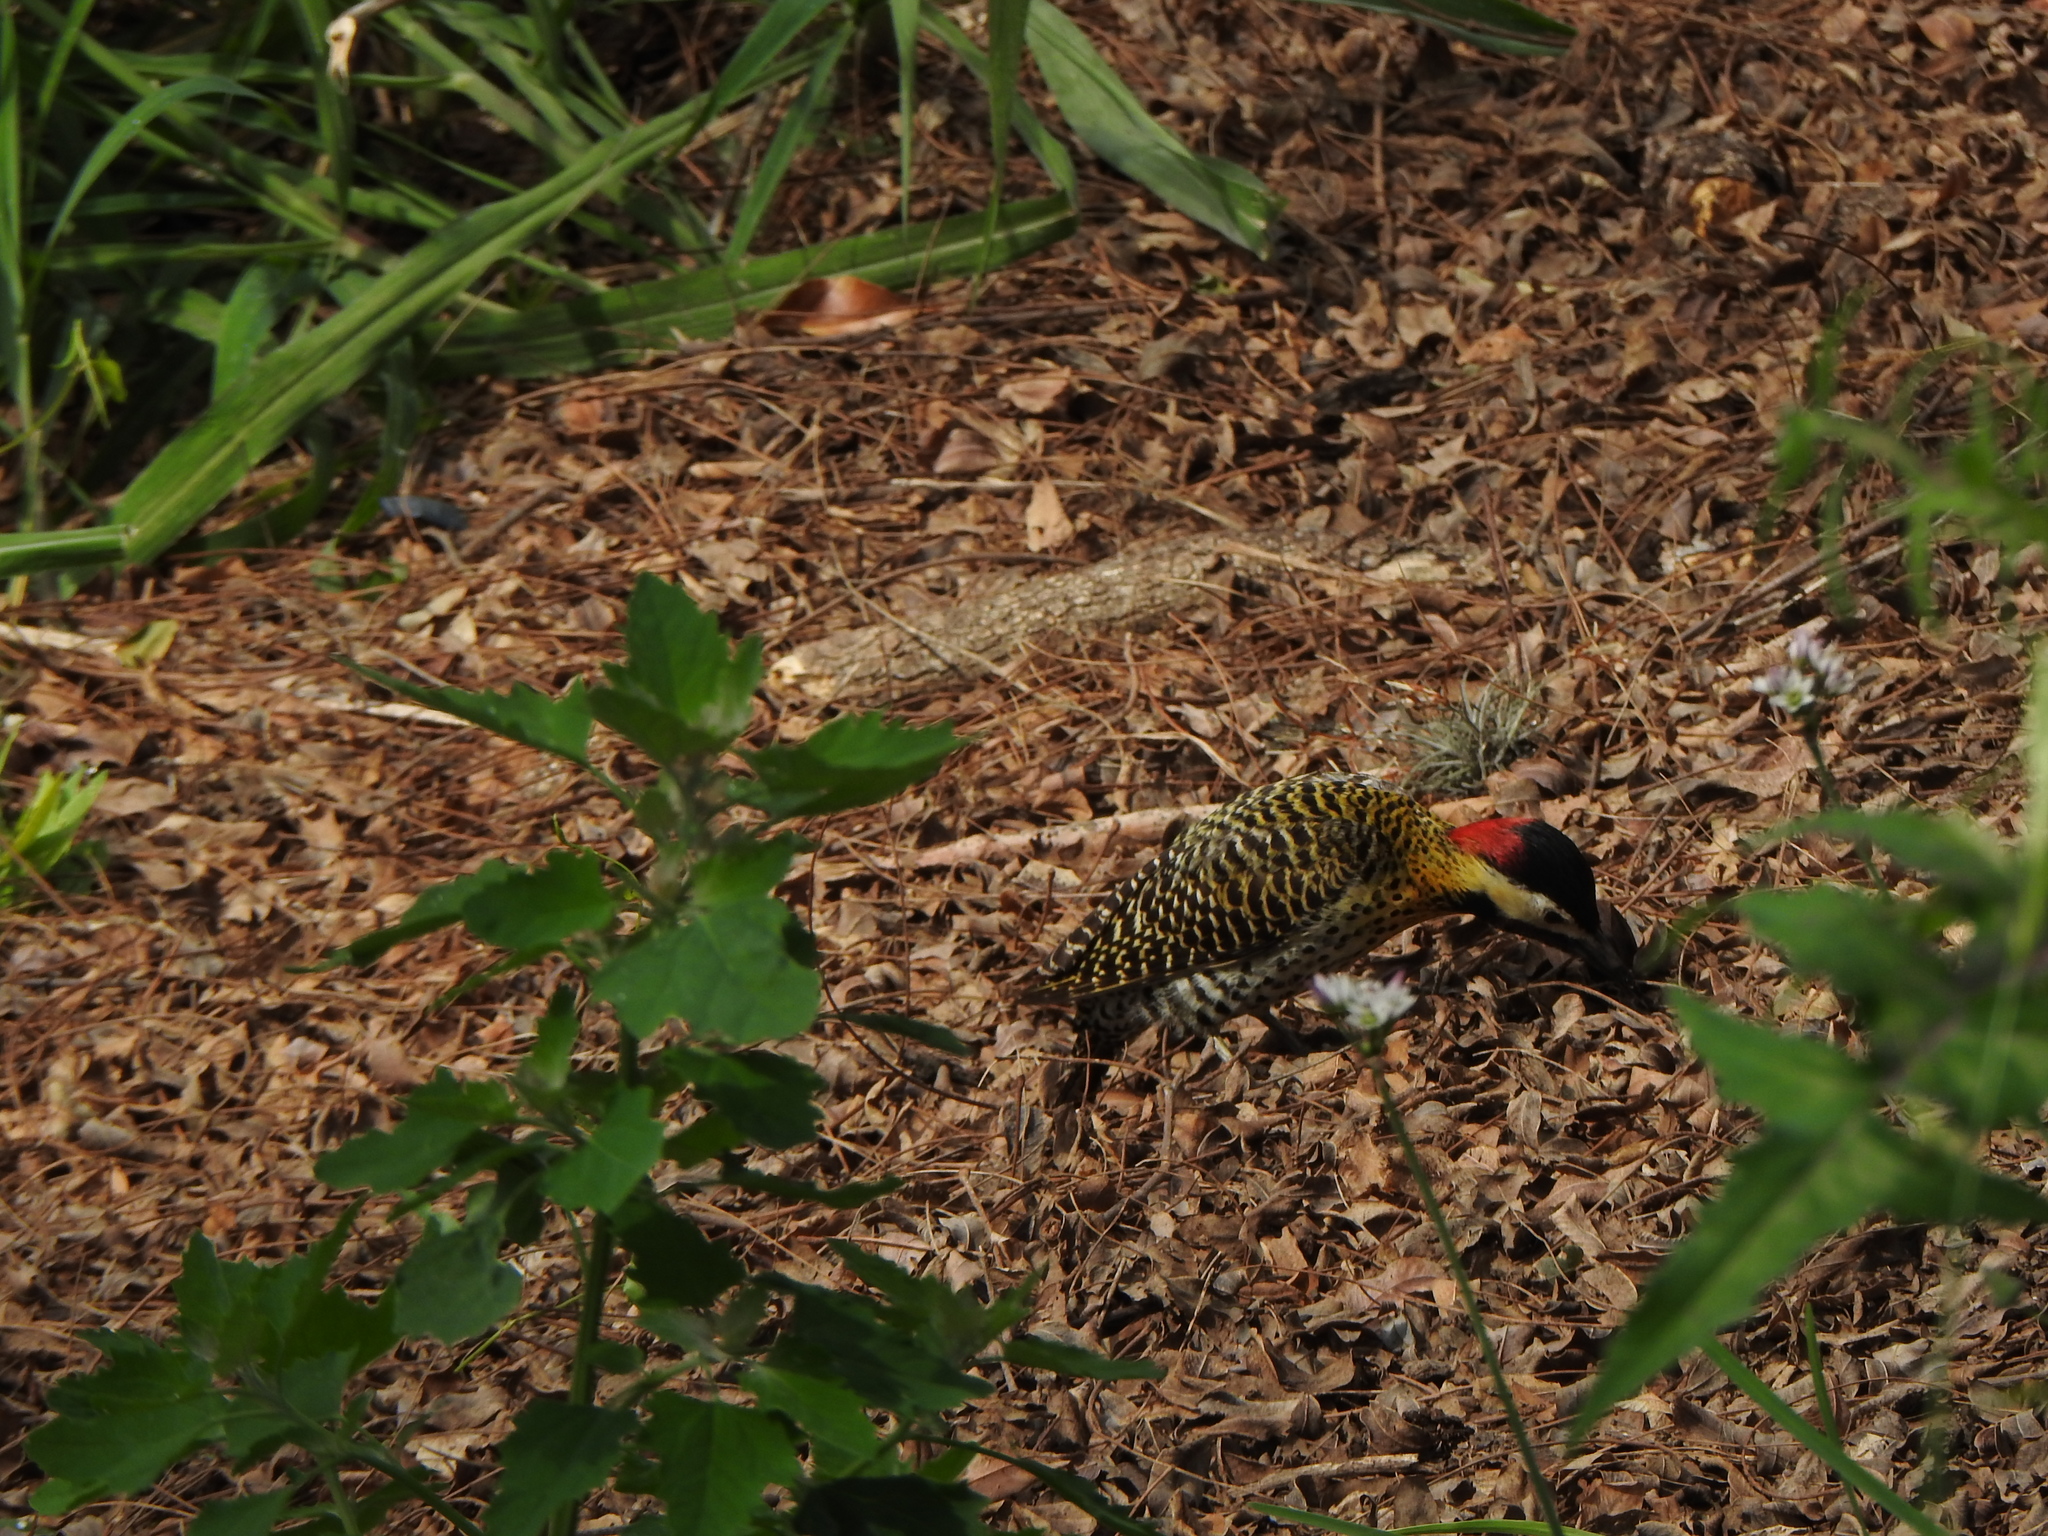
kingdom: Animalia
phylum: Chordata
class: Aves
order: Piciformes
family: Picidae
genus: Colaptes
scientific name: Colaptes melanochloros
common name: Green-barred woodpecker
